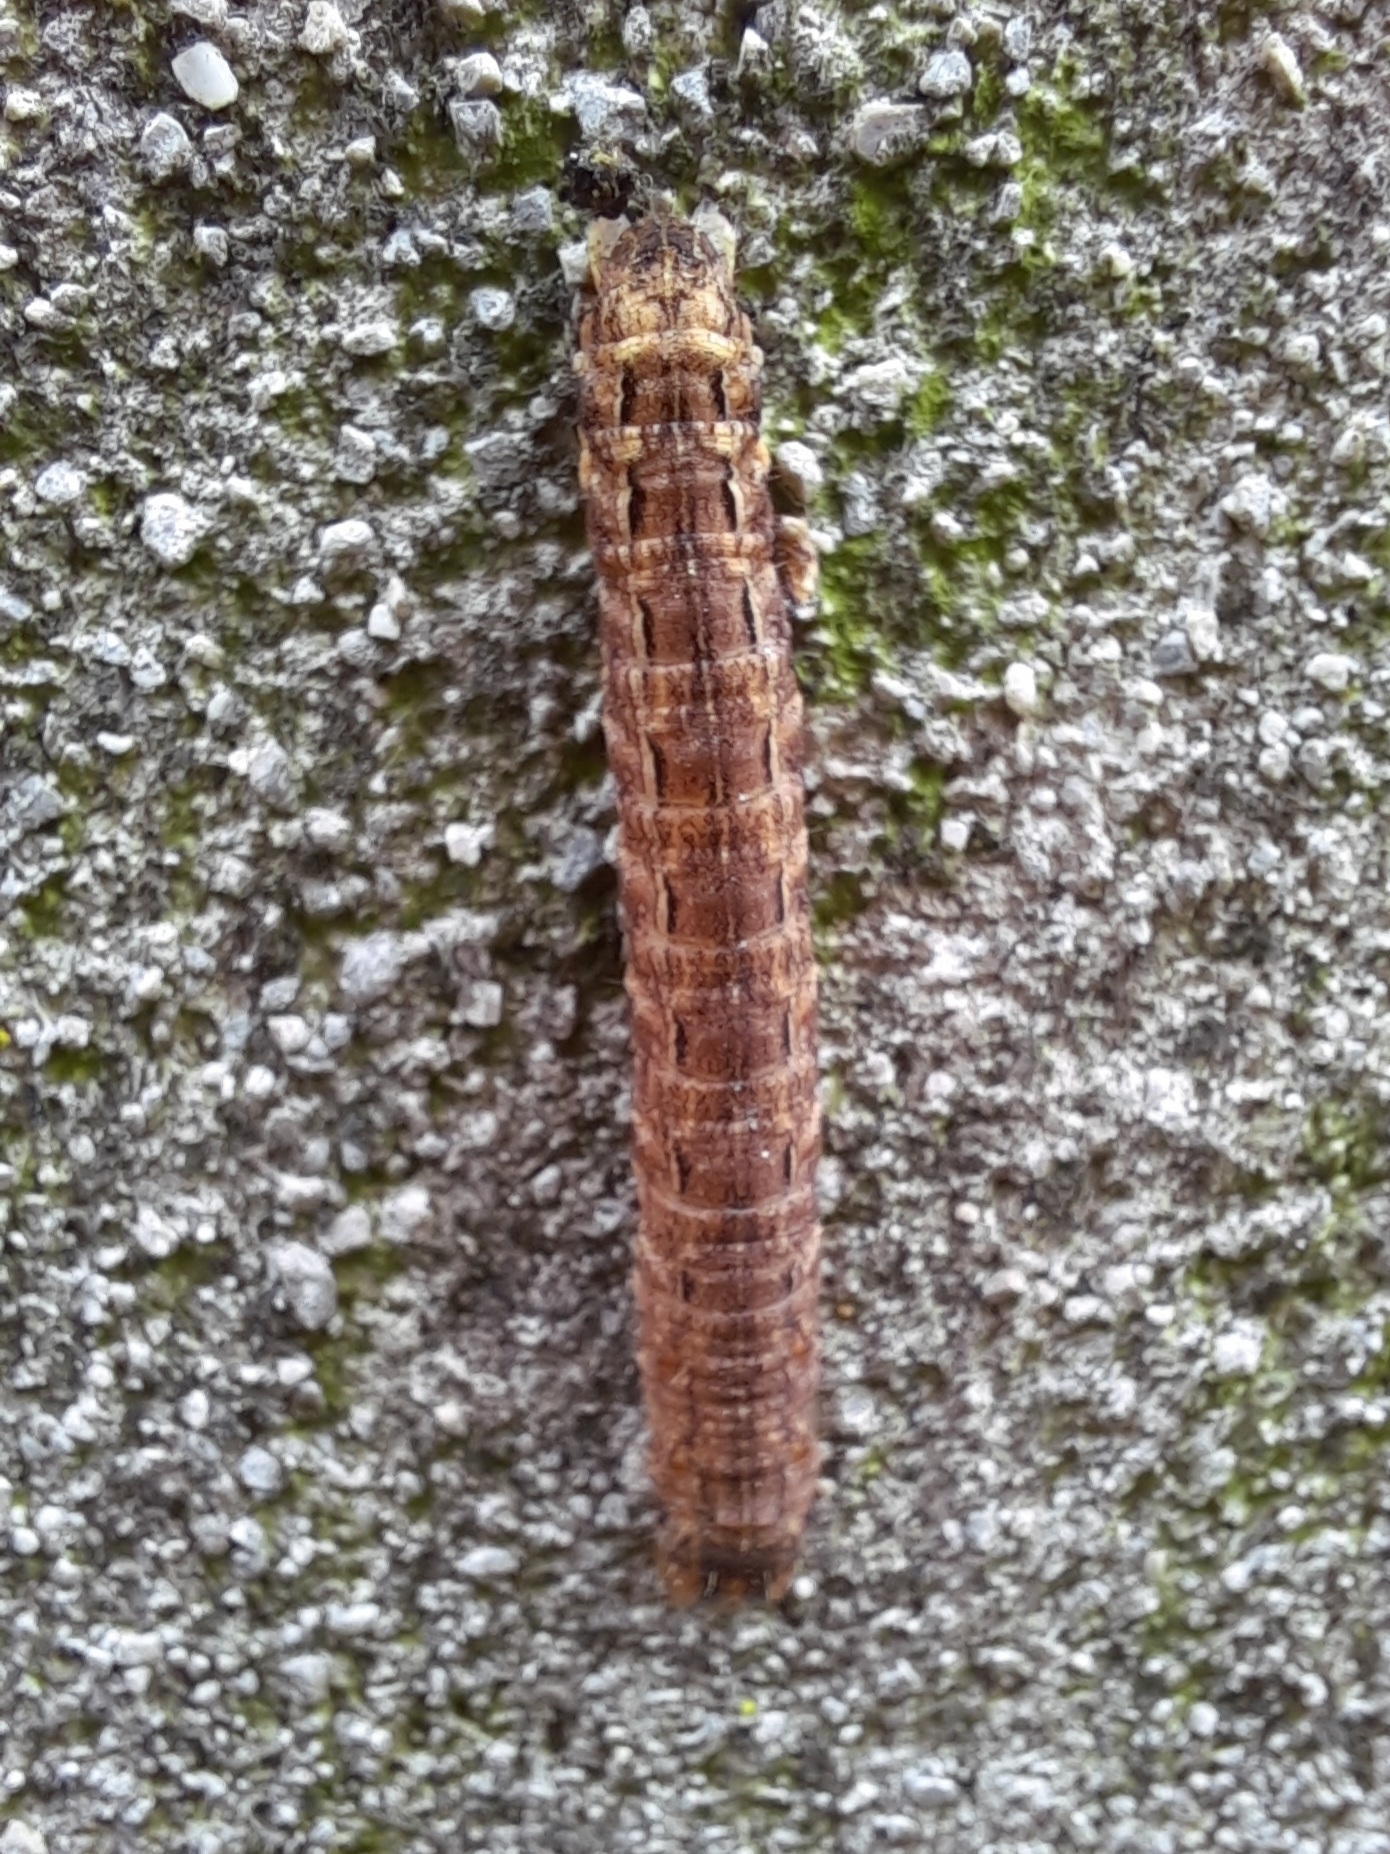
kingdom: Animalia
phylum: Arthropoda
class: Insecta
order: Lepidoptera
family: Noctuidae
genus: Noctua
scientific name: Noctua pronuba
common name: Large yellow underwing
